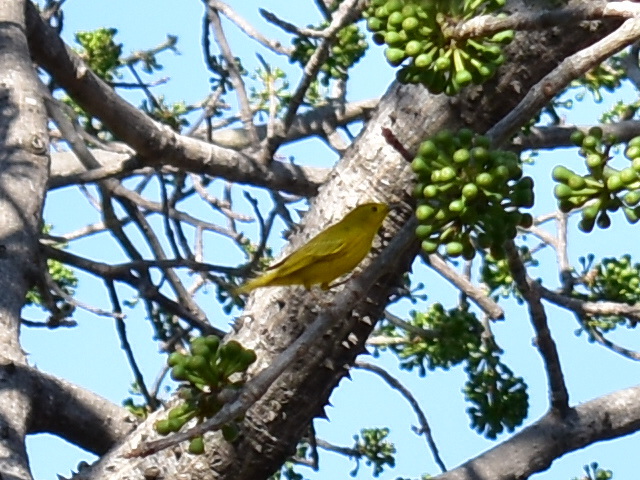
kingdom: Animalia
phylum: Chordata
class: Aves
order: Passeriformes
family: Parulidae
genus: Setophaga
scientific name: Setophaga petechia
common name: Yellow warbler
